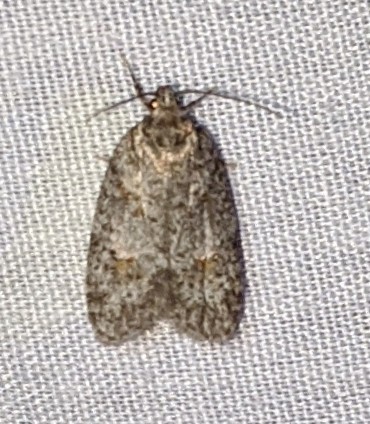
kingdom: Animalia
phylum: Arthropoda
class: Insecta
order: Lepidoptera
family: Depressariidae
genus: Bibarrambla
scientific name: Bibarrambla allenella
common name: Bog bibarrambla moth
